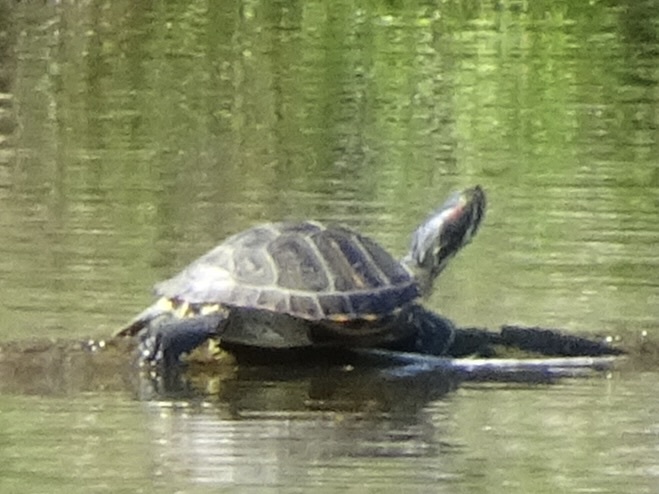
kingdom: Animalia
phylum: Chordata
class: Testudines
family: Emydidae
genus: Trachemys
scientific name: Trachemys scripta
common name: Slider
